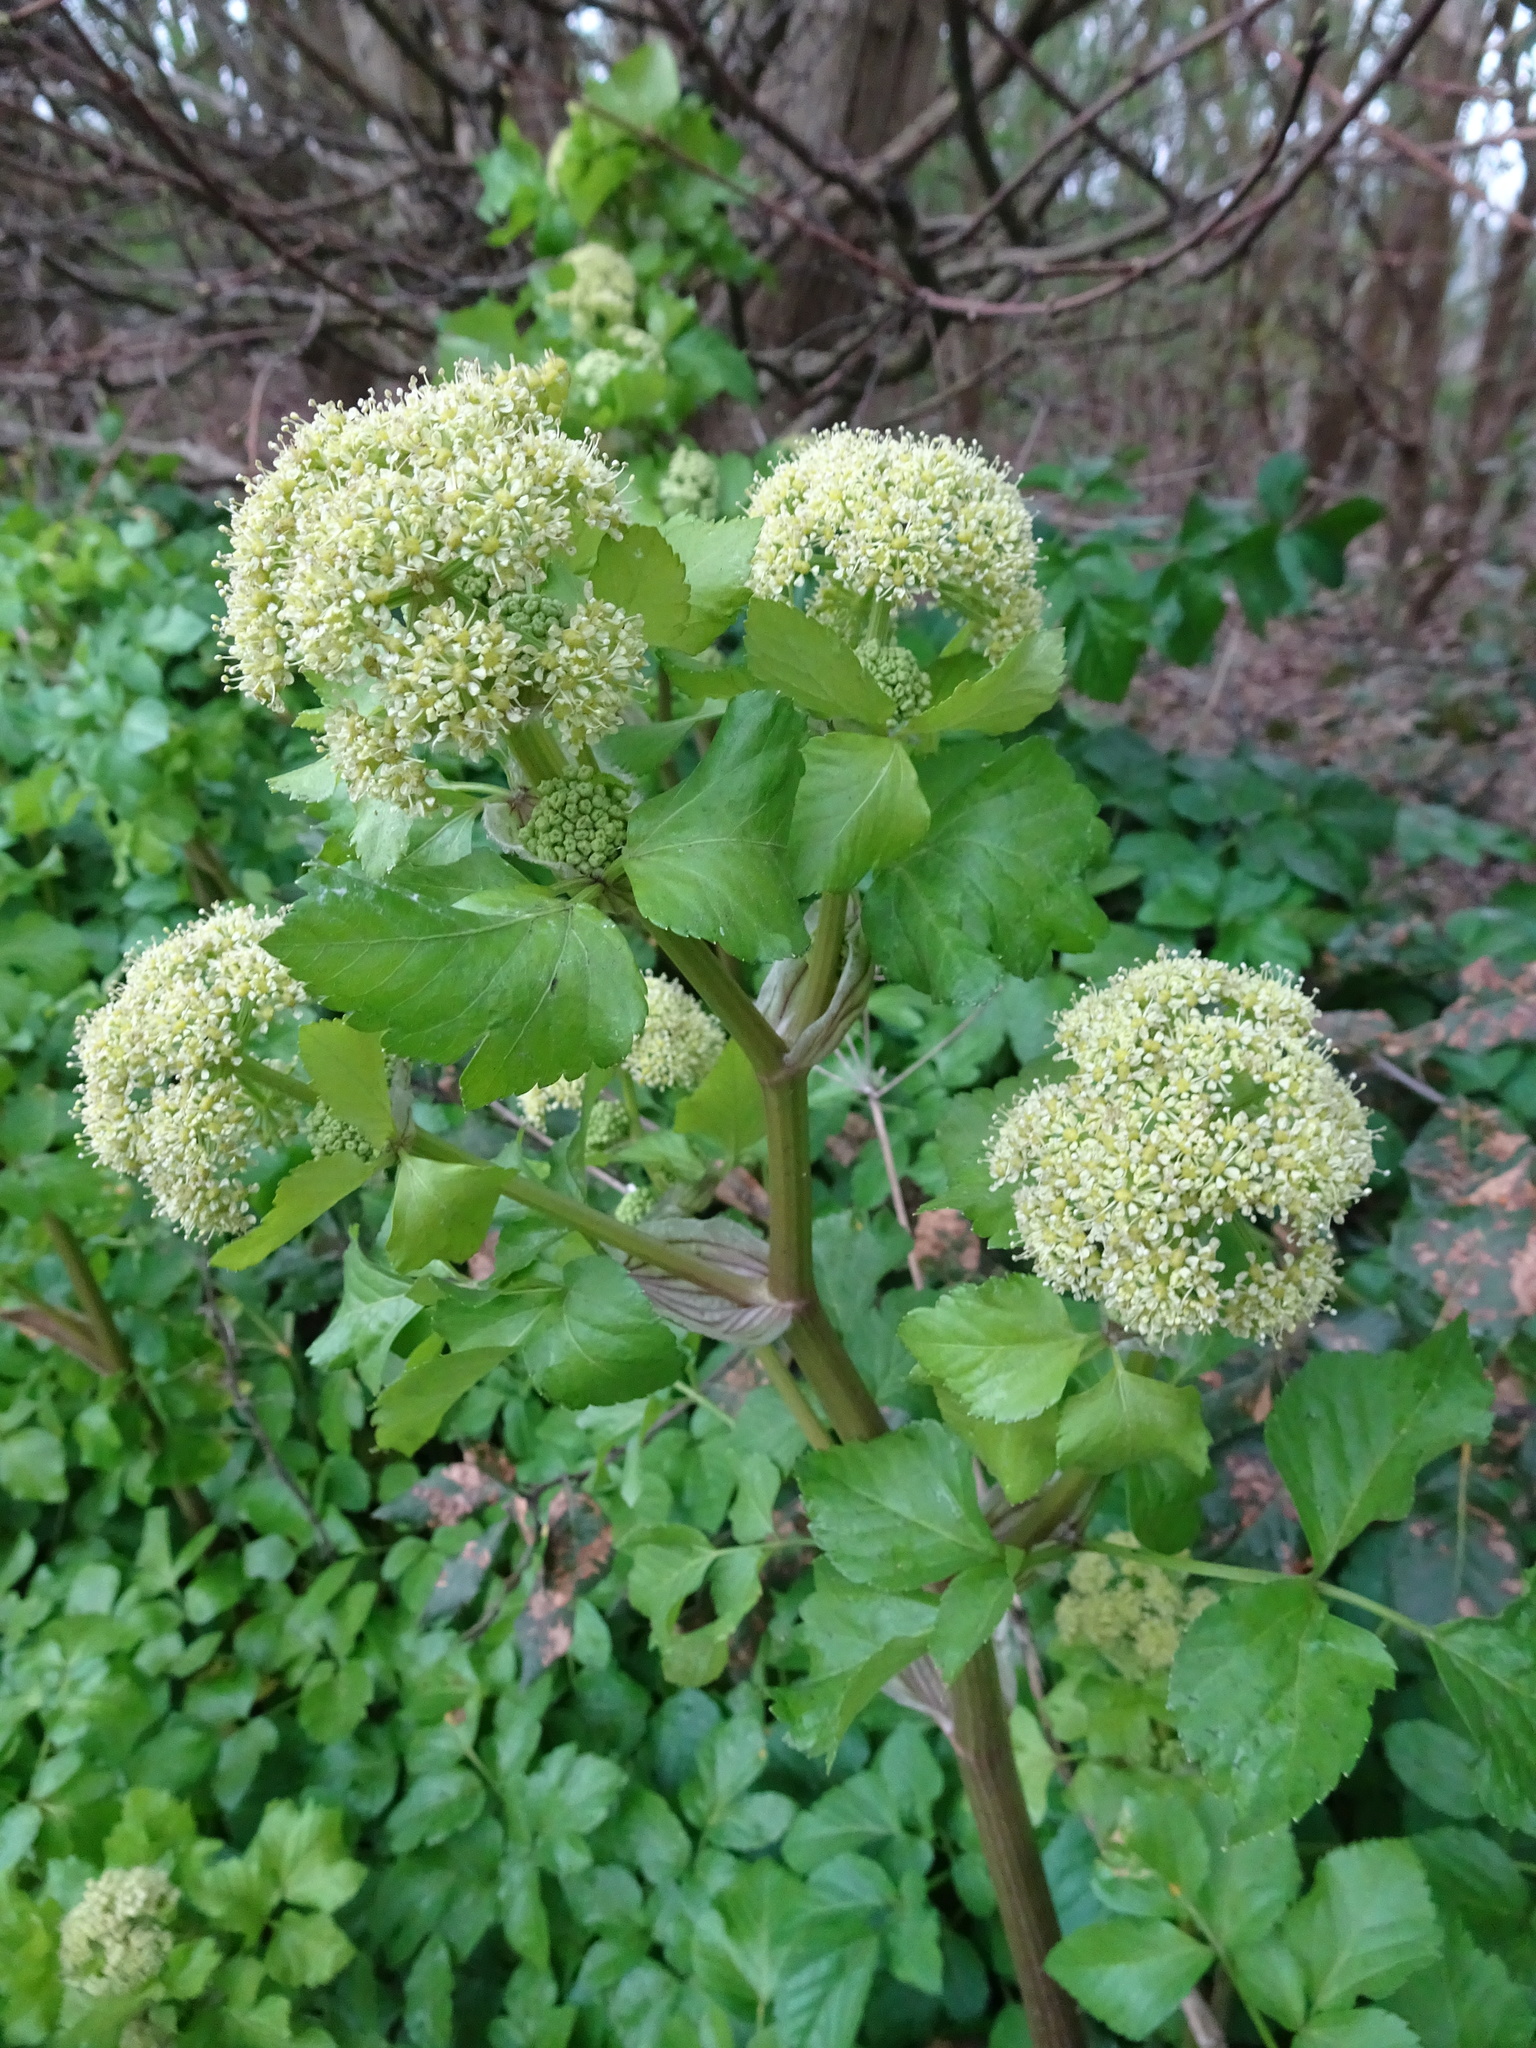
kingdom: Plantae
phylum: Tracheophyta
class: Magnoliopsida
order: Apiales
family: Apiaceae
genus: Smyrnium
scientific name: Smyrnium olusatrum
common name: Alexanders
